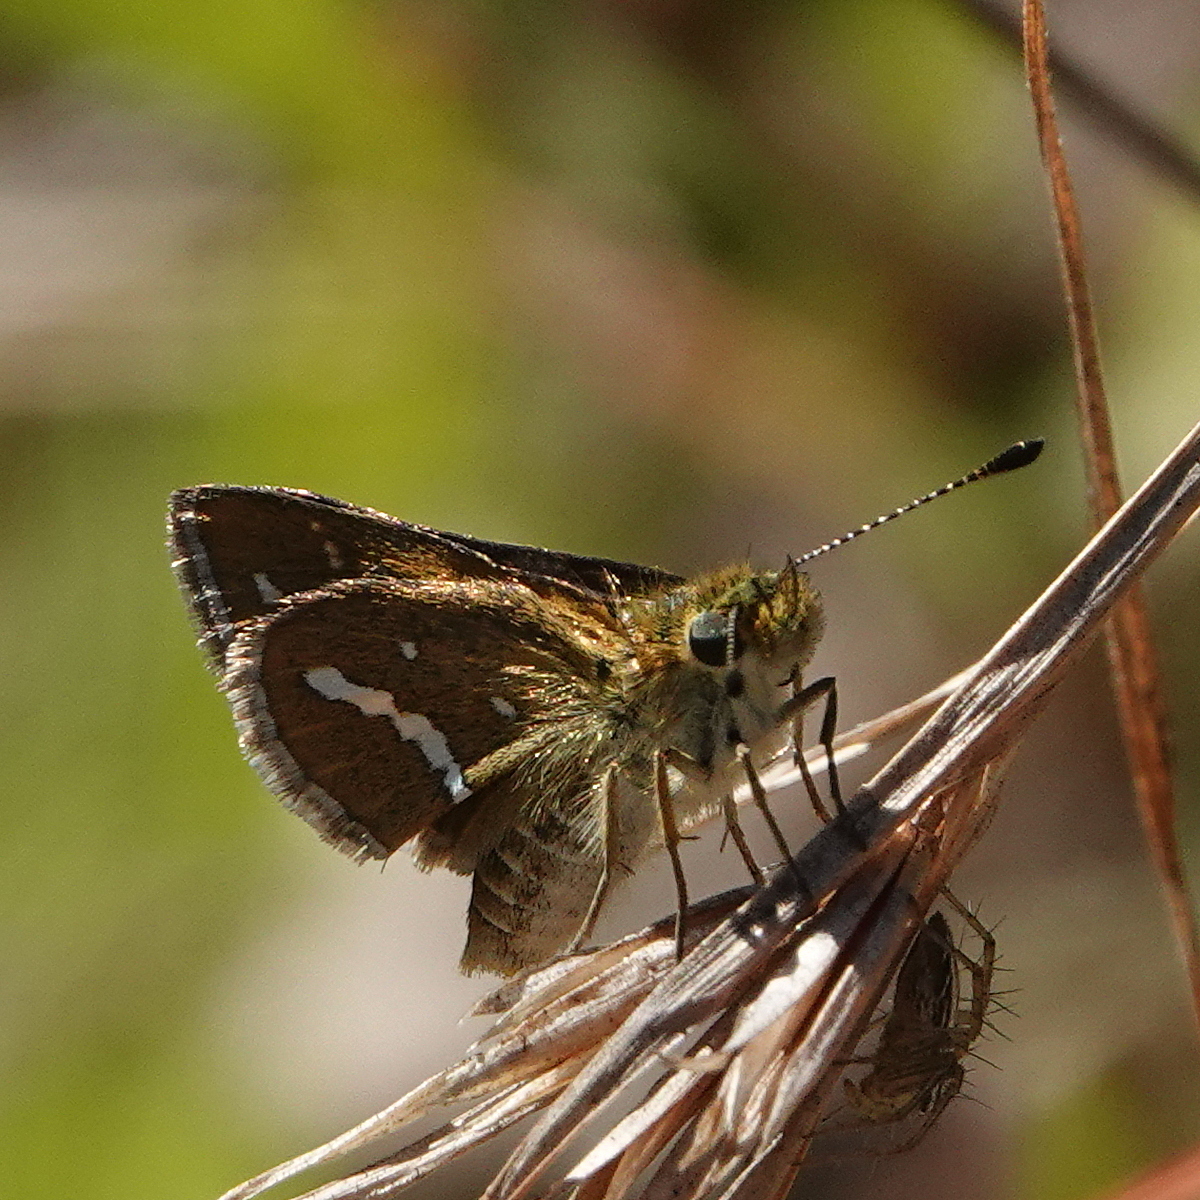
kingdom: Animalia
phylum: Arthropoda
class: Insecta
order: Lepidoptera
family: Hesperiidae
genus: Taractrocera
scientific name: Taractrocera papyria
